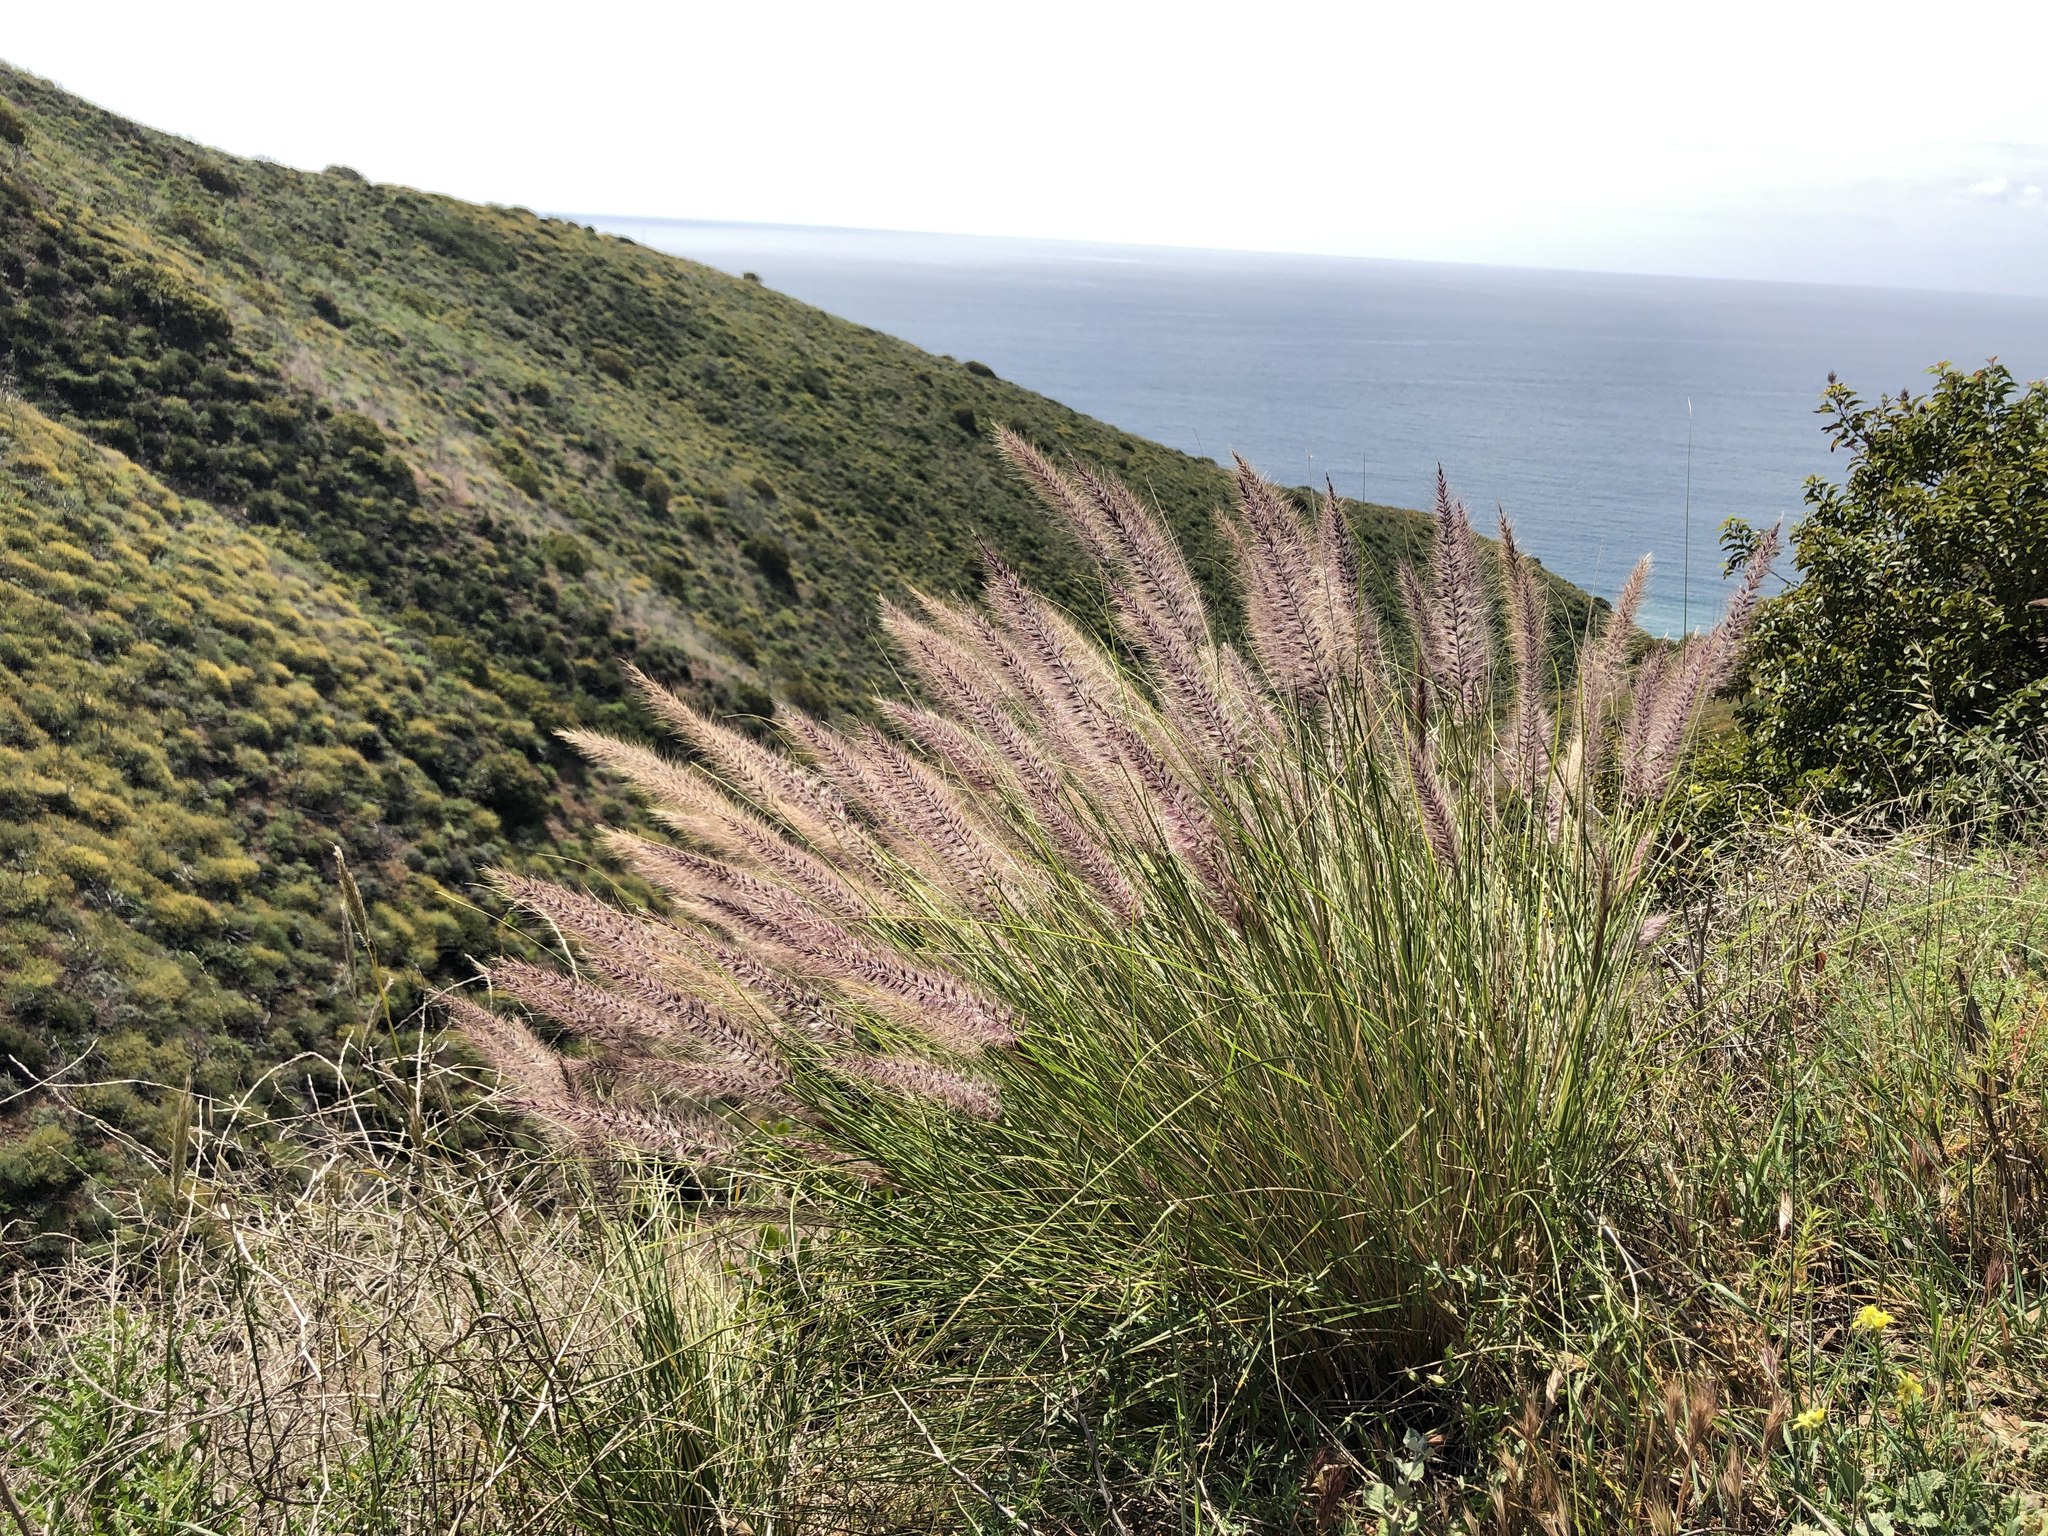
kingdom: Plantae
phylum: Tracheophyta
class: Liliopsida
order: Poales
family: Poaceae
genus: Cenchrus
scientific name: Cenchrus setaceus
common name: Crimson fountaingrass
